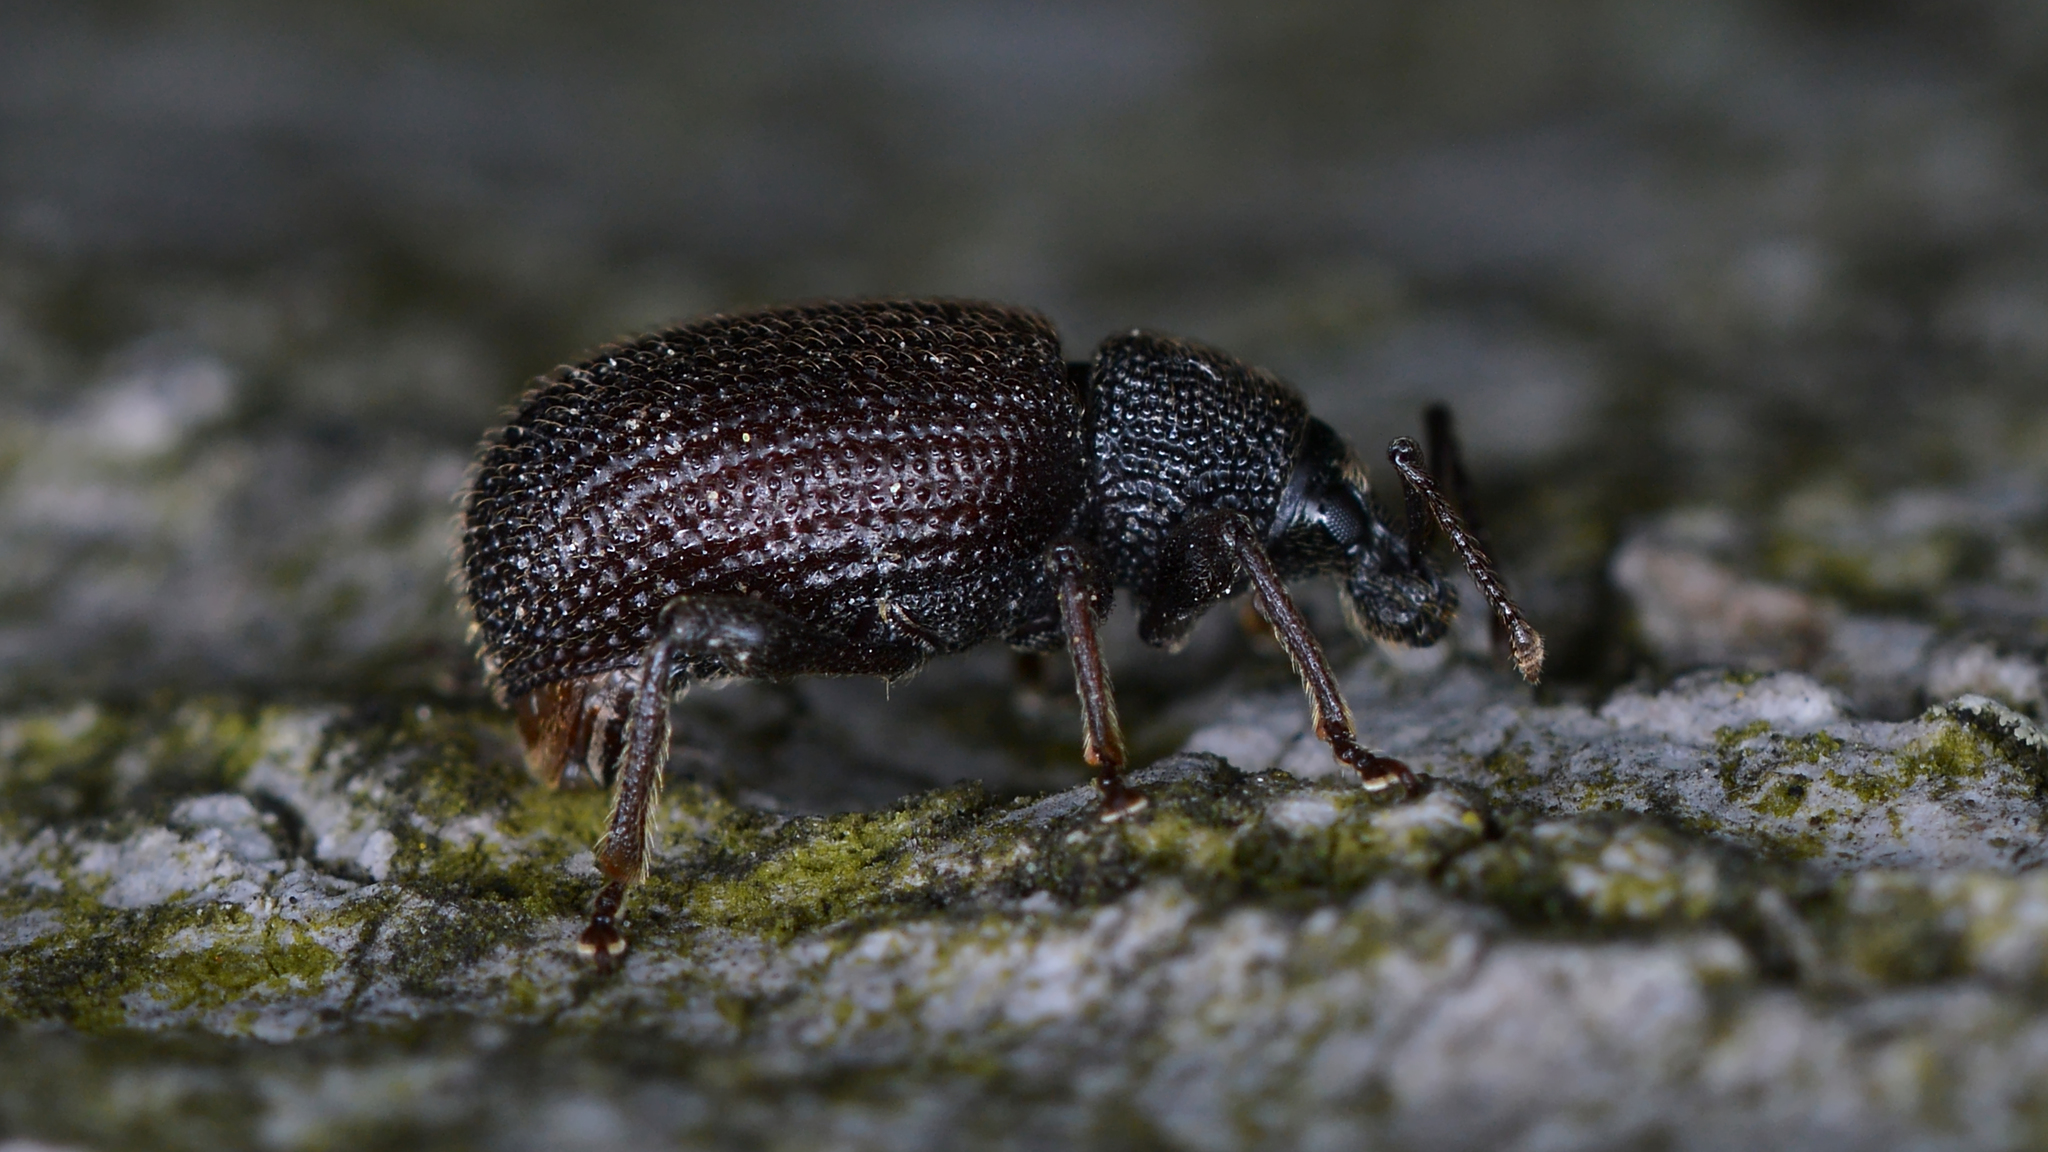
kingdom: Animalia
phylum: Arthropoda
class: Insecta
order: Coleoptera
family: Curculionidae
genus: Otiorhynchus
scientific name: Otiorhynchus rugosostriatus
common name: Weevil
